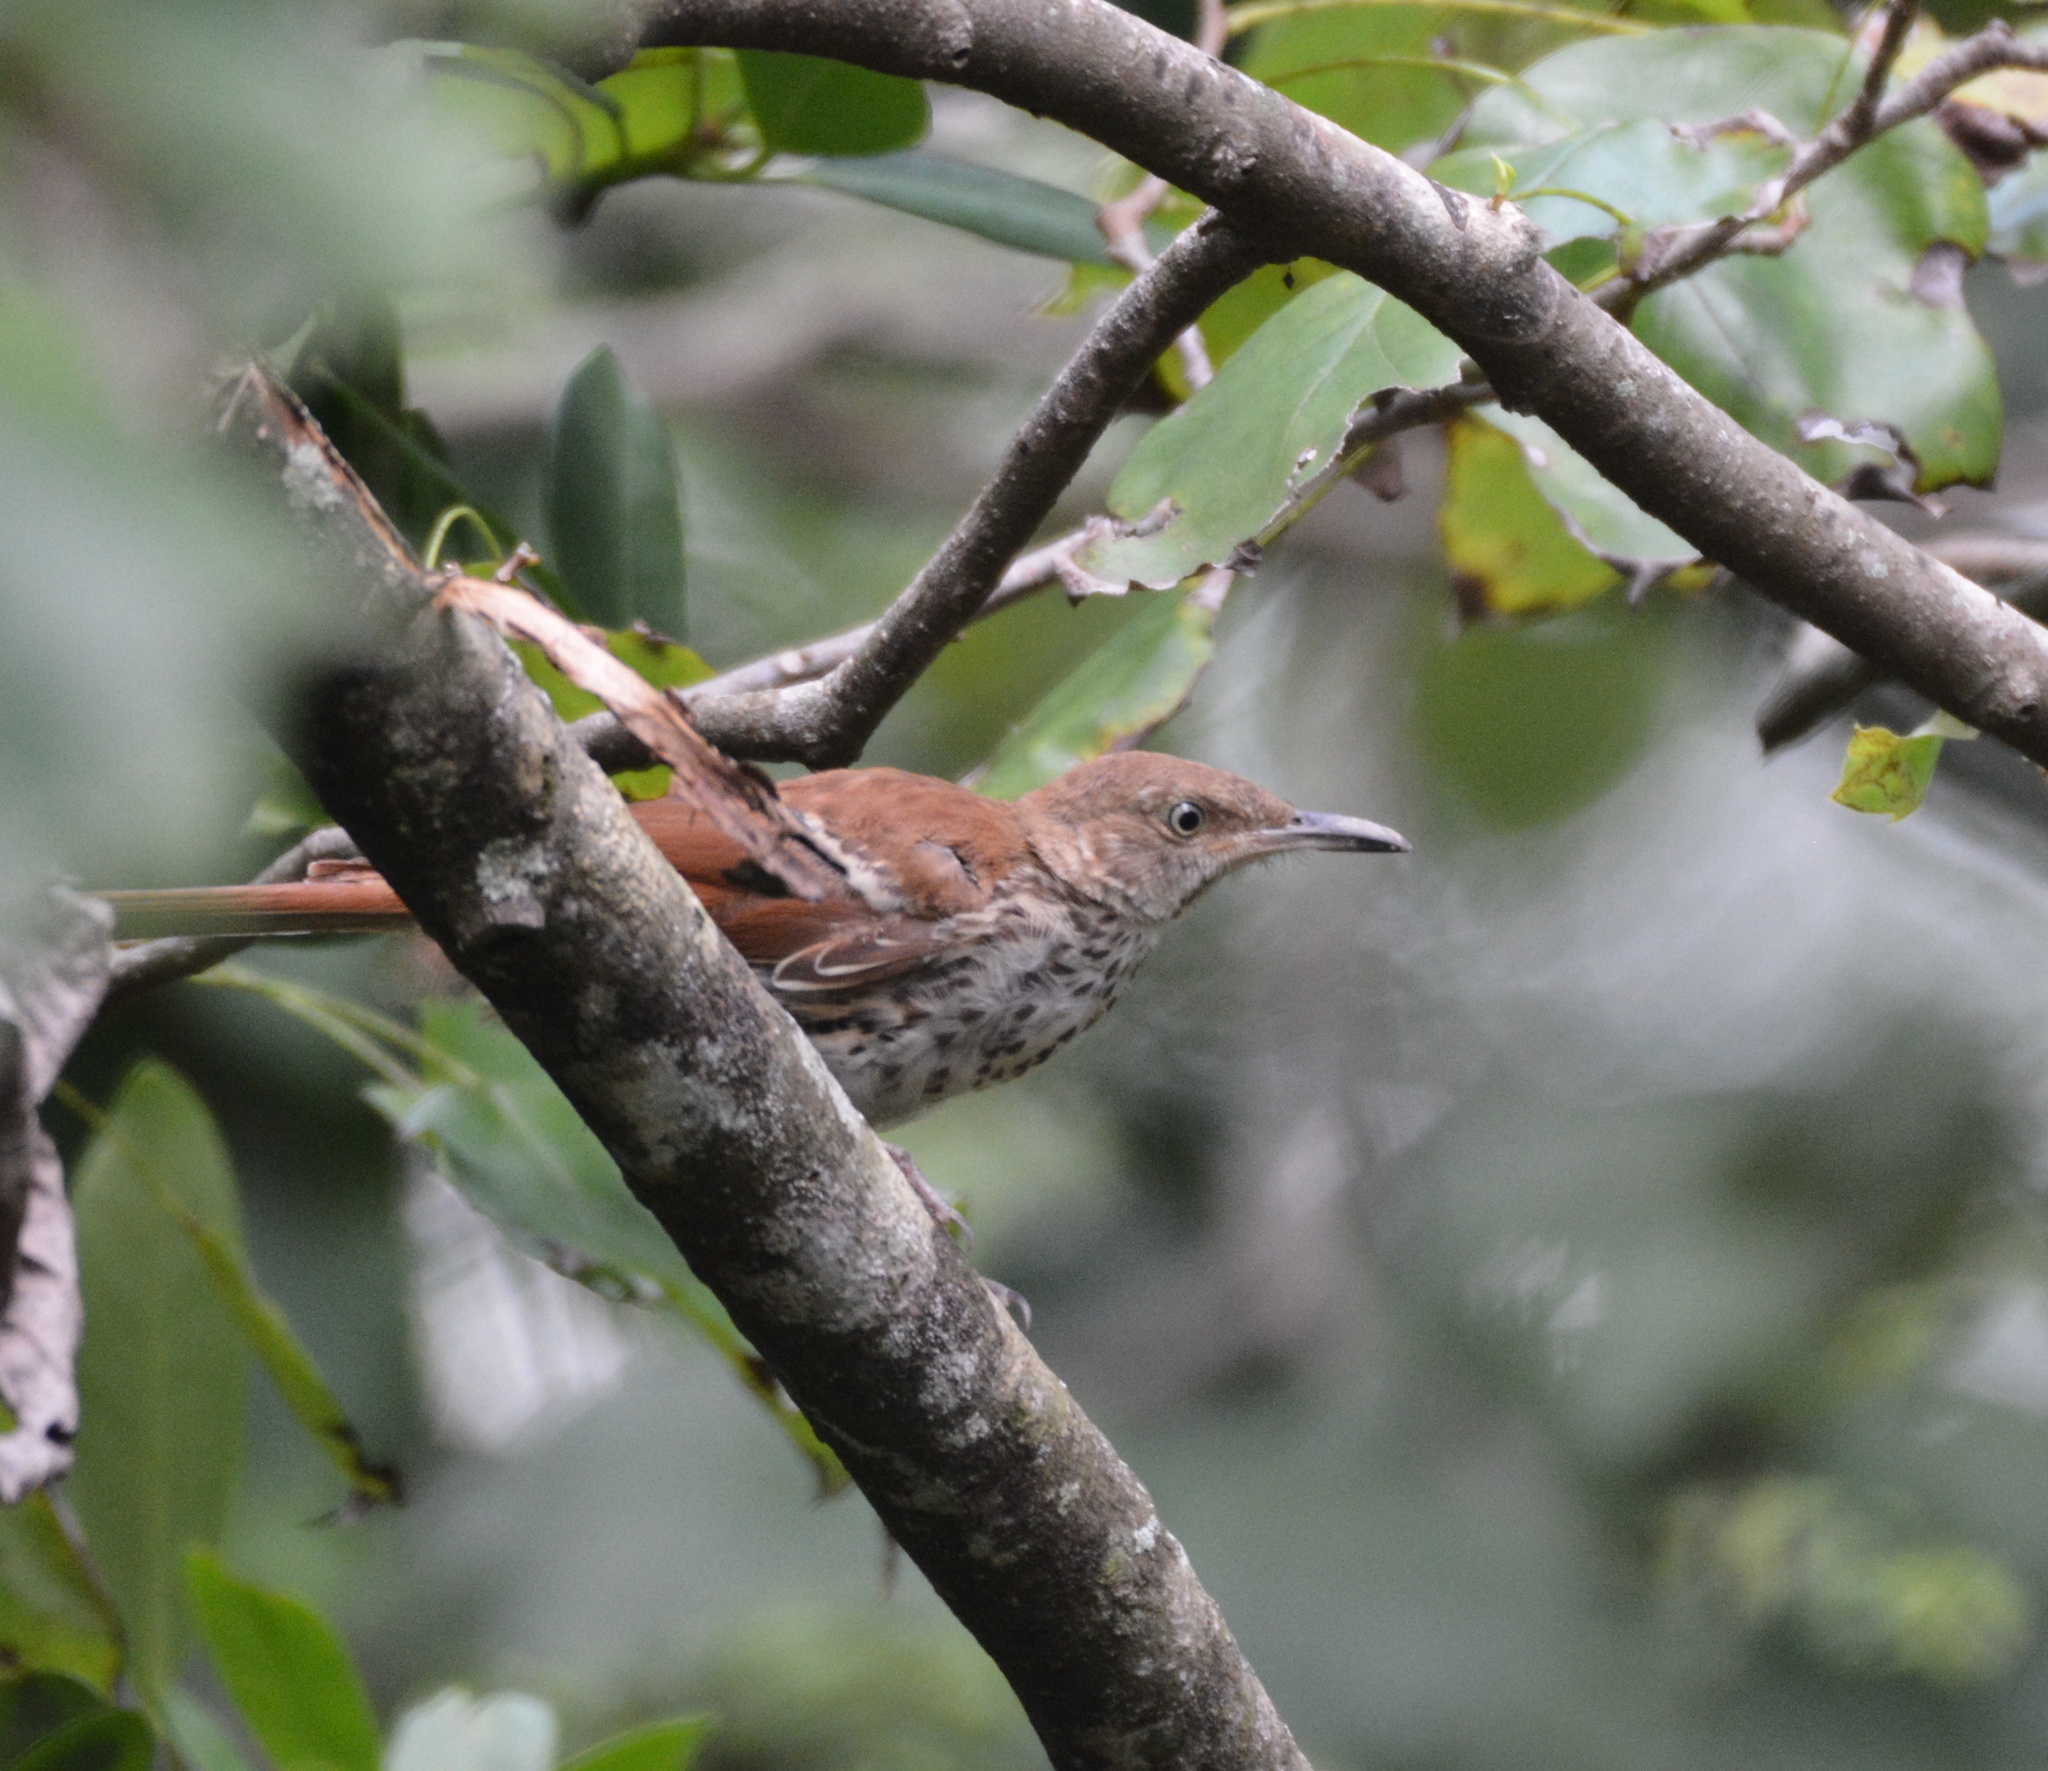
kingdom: Animalia
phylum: Chordata
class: Aves
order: Passeriformes
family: Mimidae
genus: Toxostoma
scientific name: Toxostoma rufum
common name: Brown thrasher
